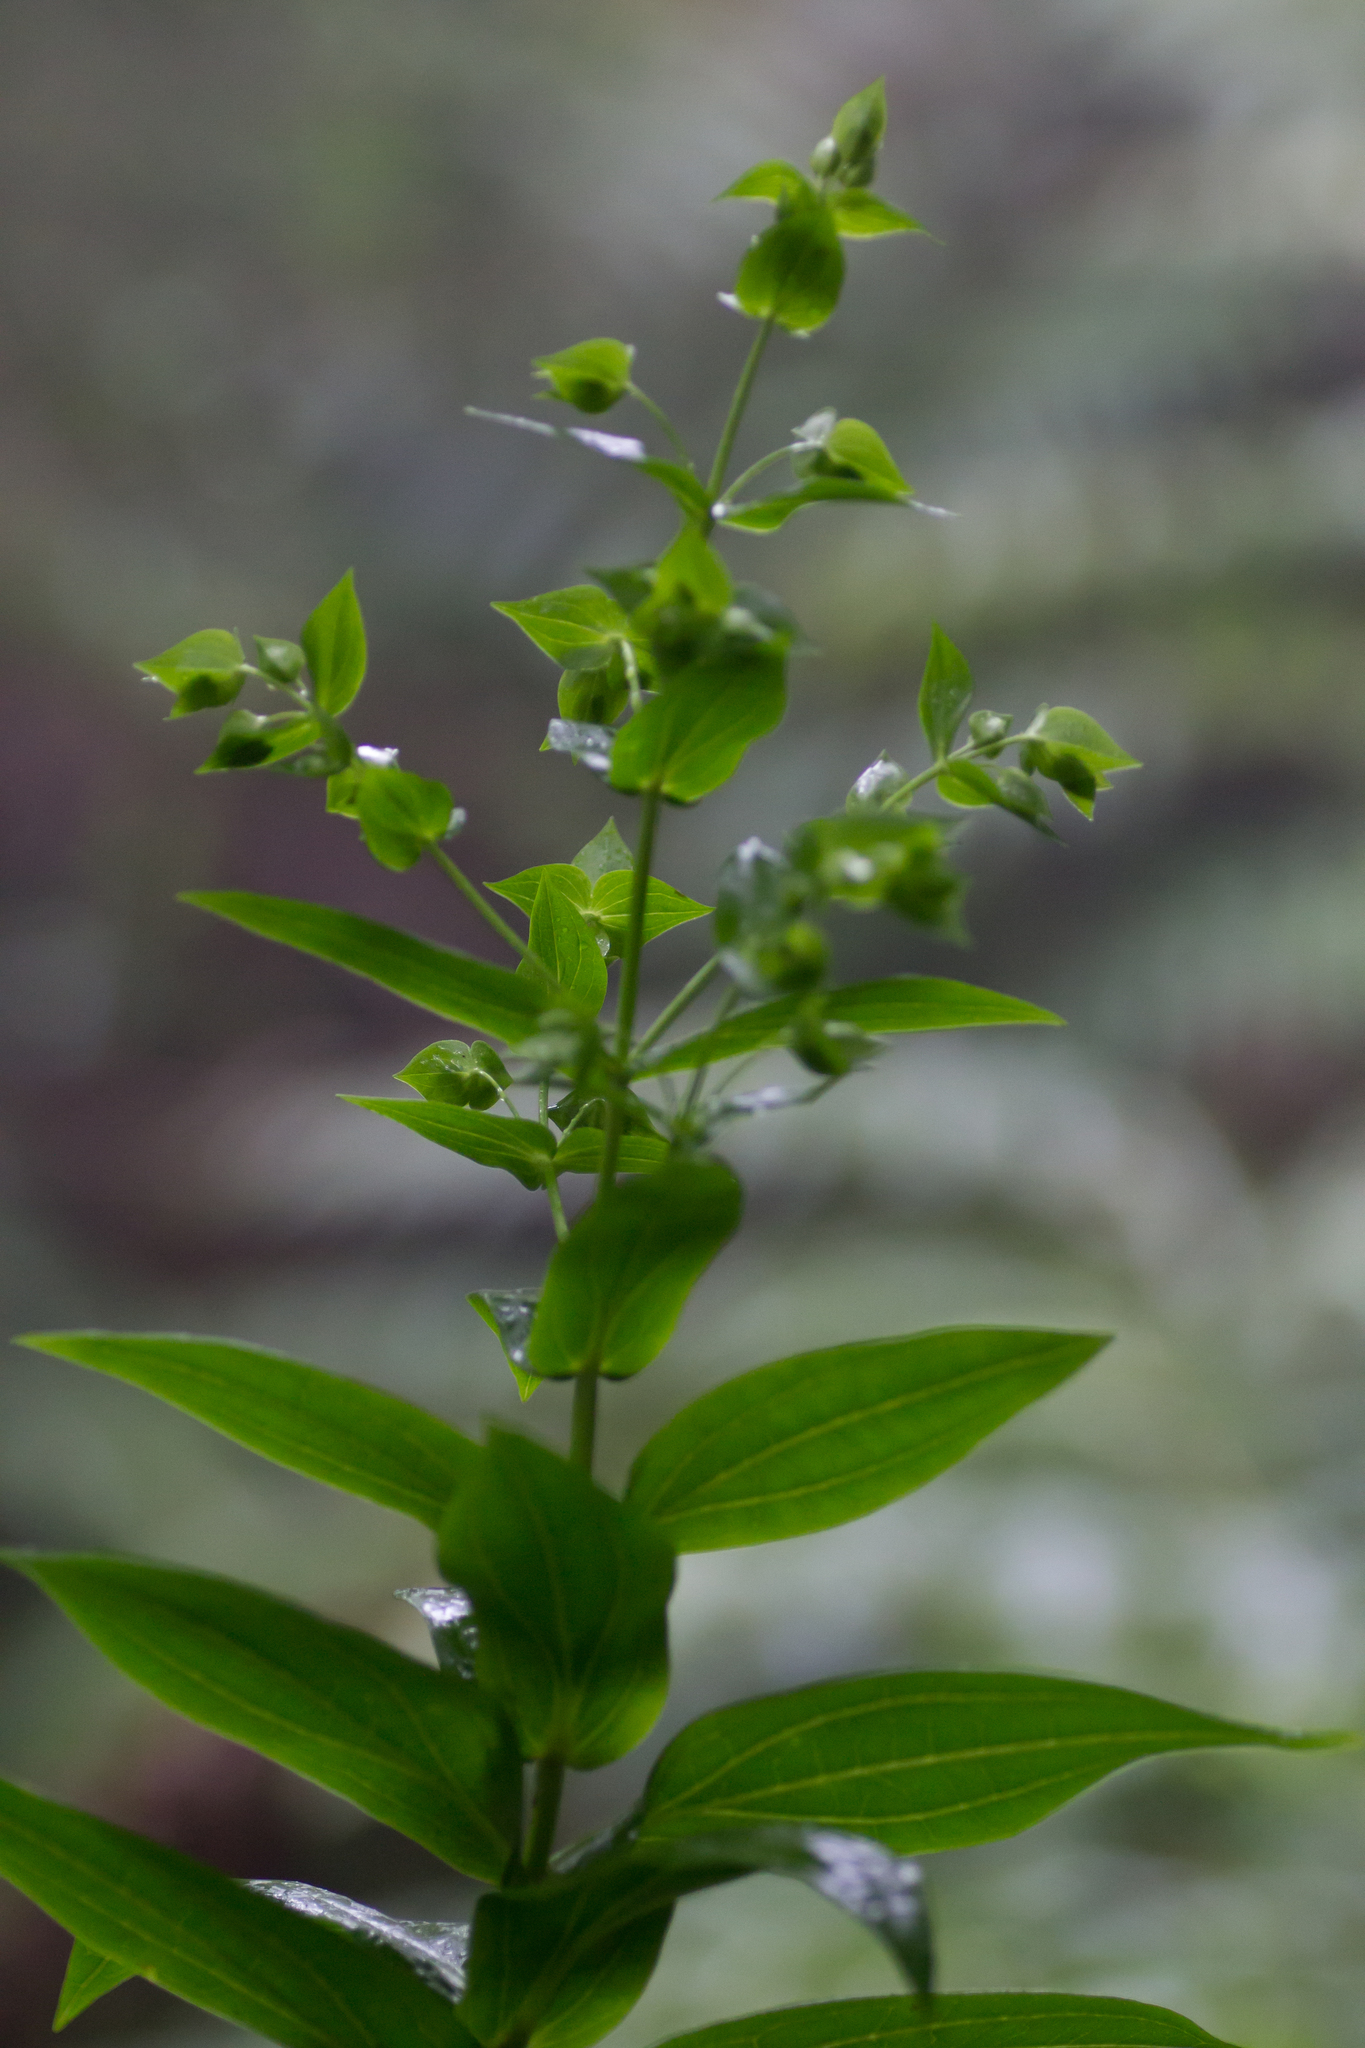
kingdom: Plantae
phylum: Tracheophyta
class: Magnoliopsida
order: Gentianales
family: Gentianaceae
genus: Ixanthus
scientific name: Ixanthus viscosus
